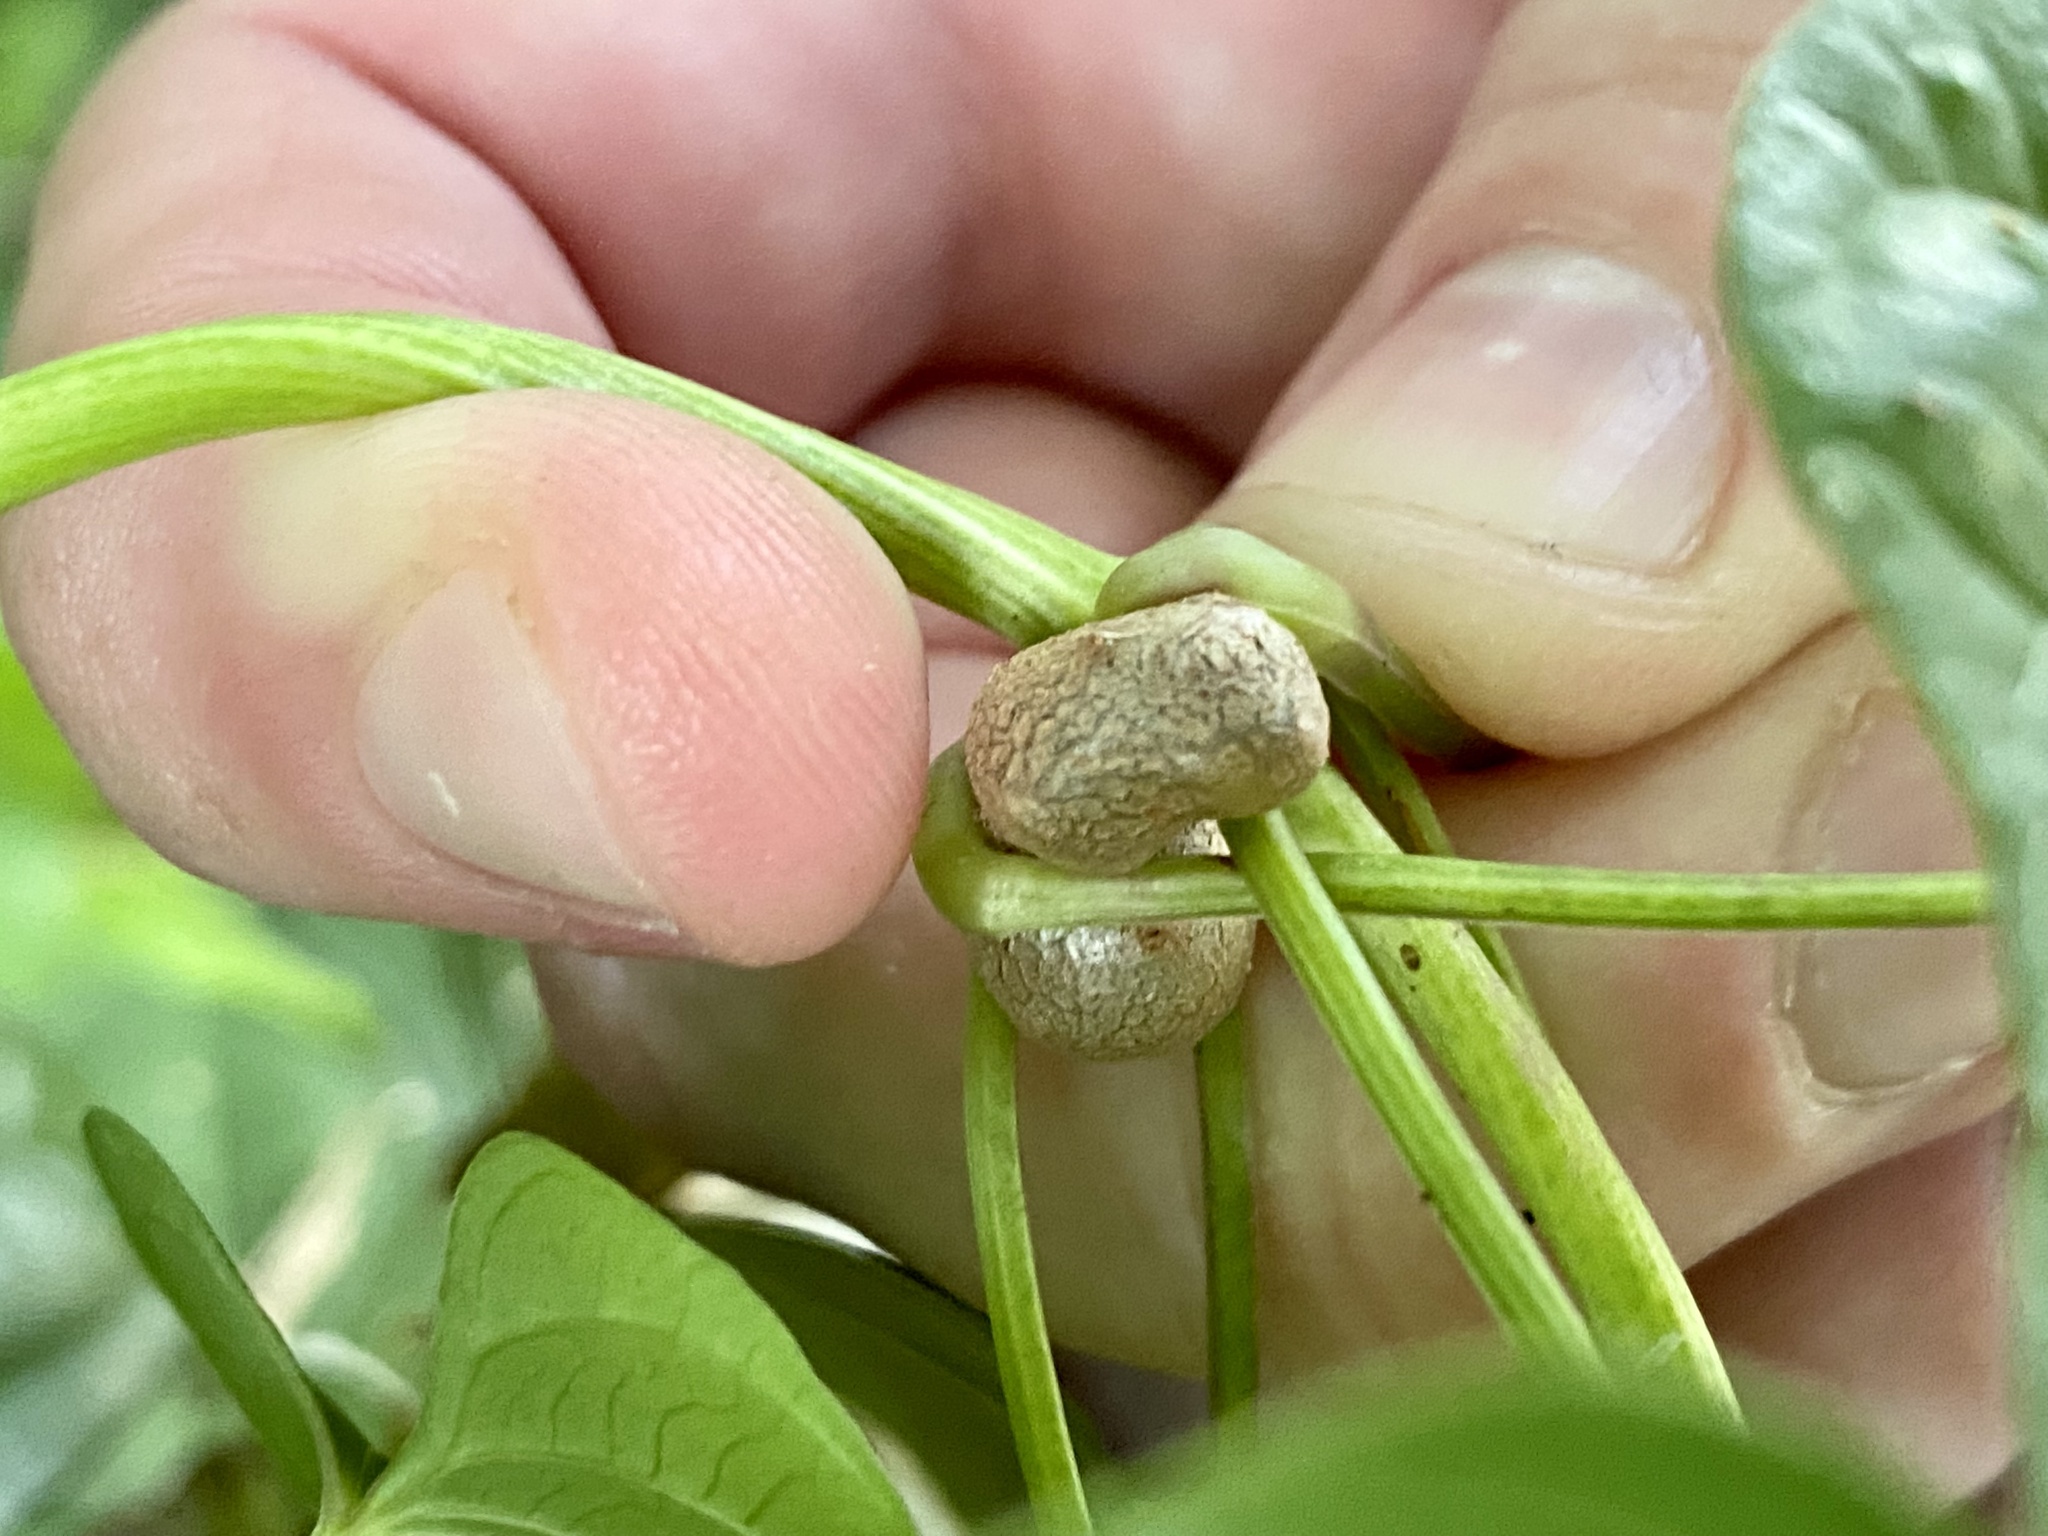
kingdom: Plantae
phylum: Tracheophyta
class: Liliopsida
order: Dioscoreales
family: Dioscoreaceae
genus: Dioscorea
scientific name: Dioscorea polystachya
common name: Chinese yam
